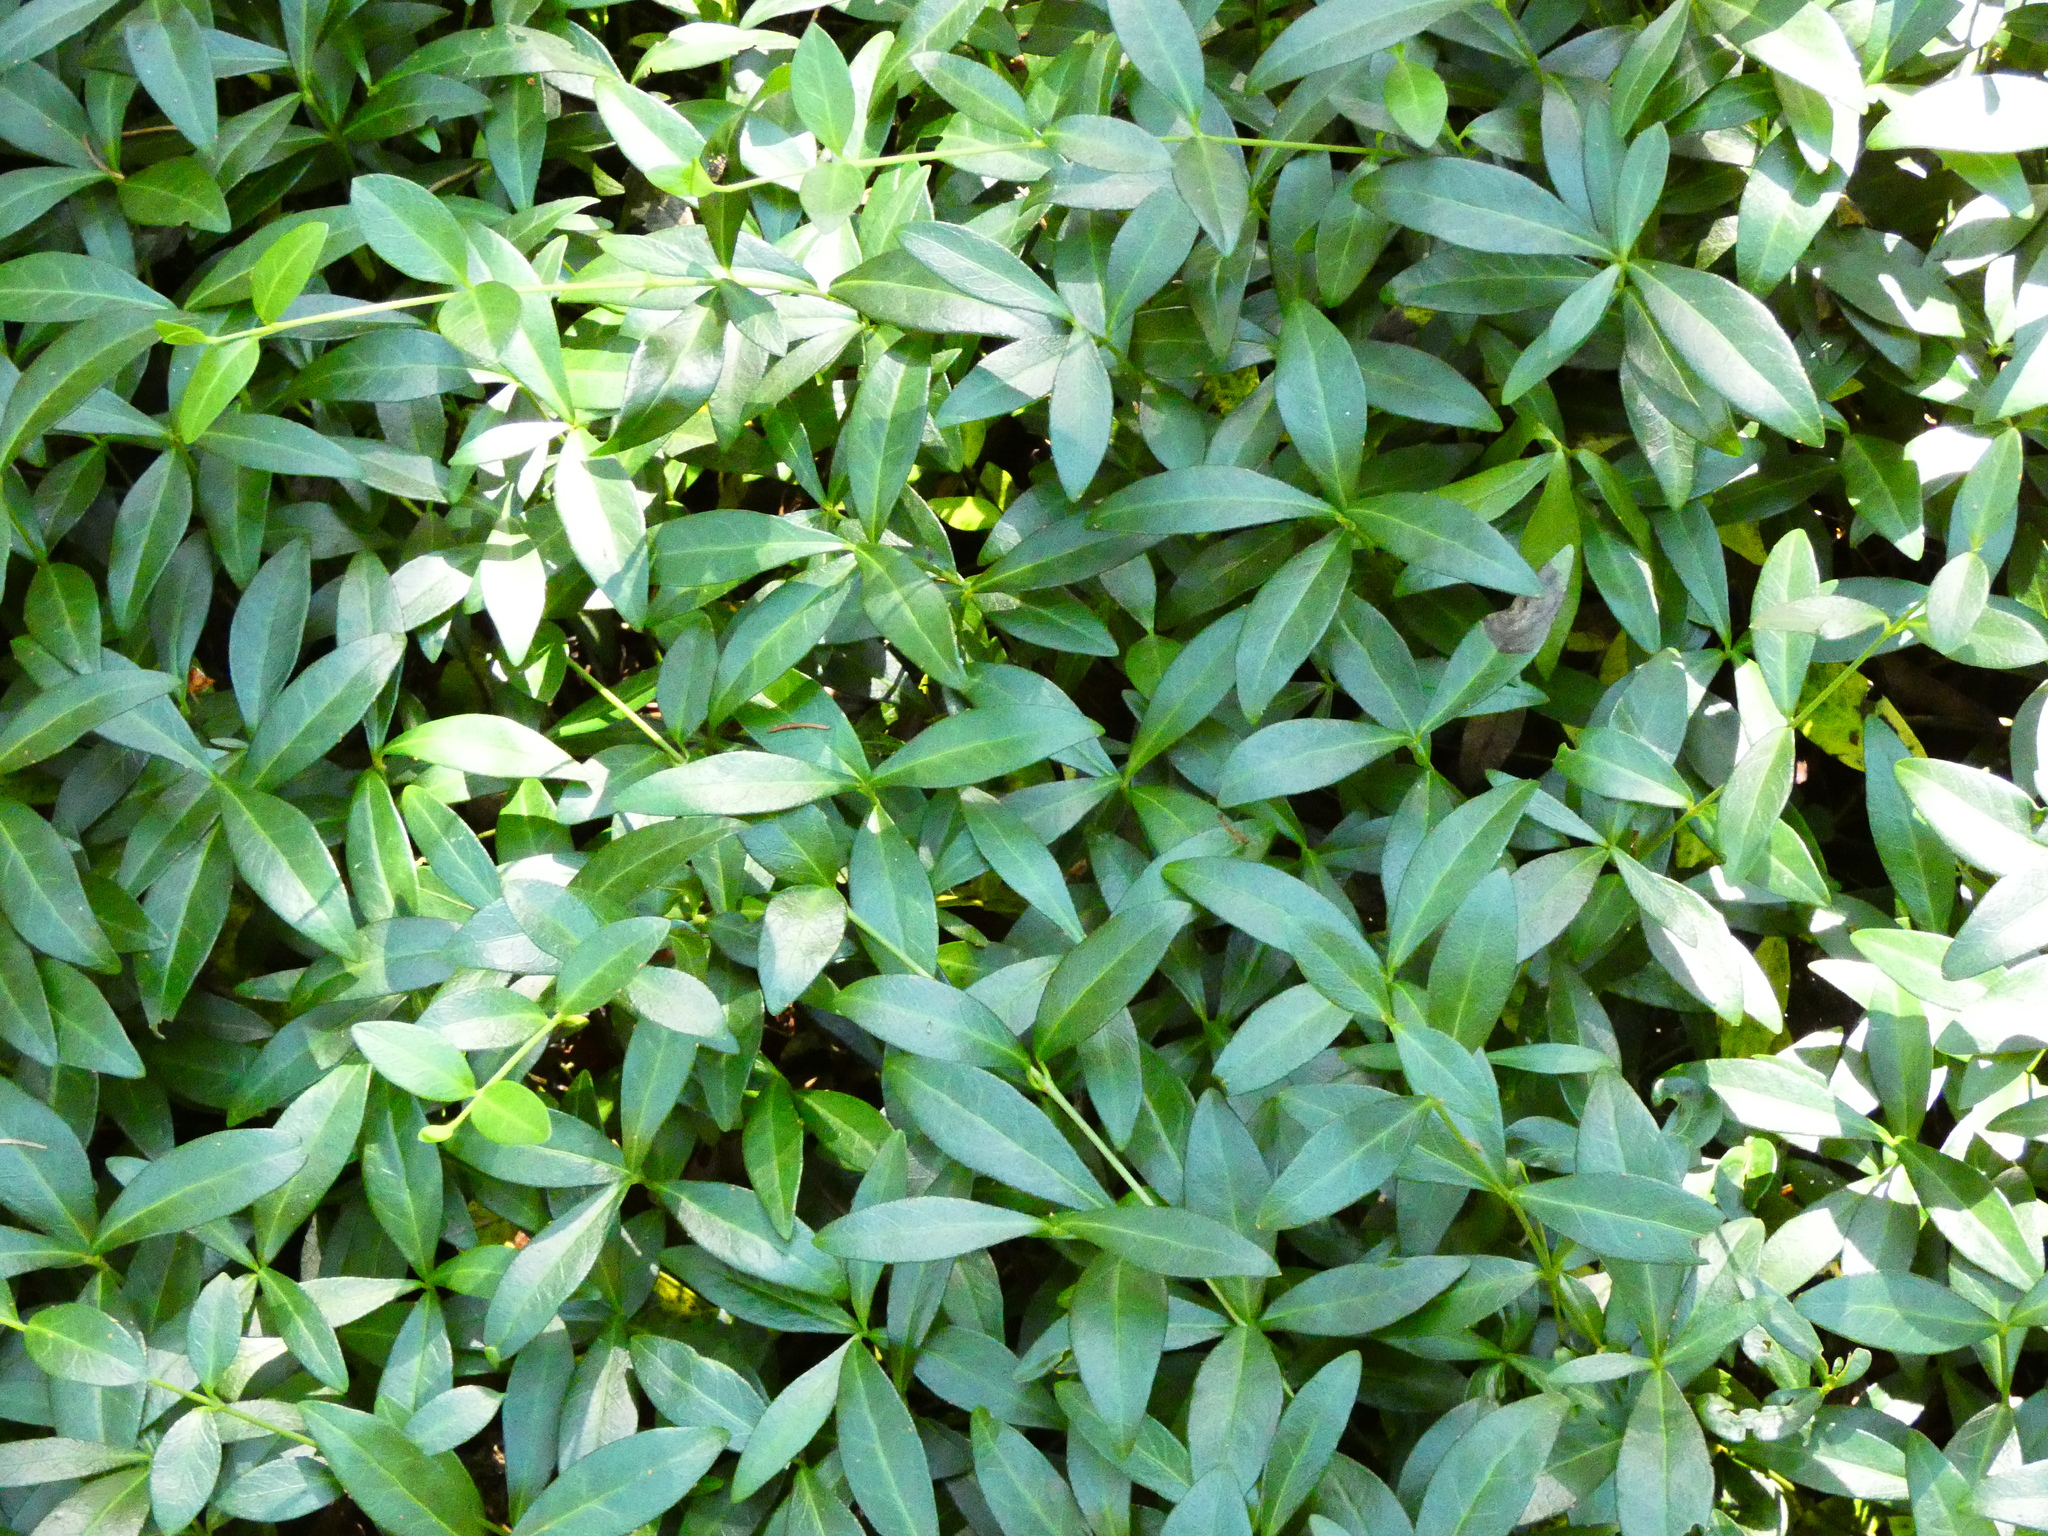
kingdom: Plantae
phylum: Tracheophyta
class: Magnoliopsida
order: Gentianales
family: Apocynaceae
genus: Vinca
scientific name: Vinca minor
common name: Lesser periwinkle
